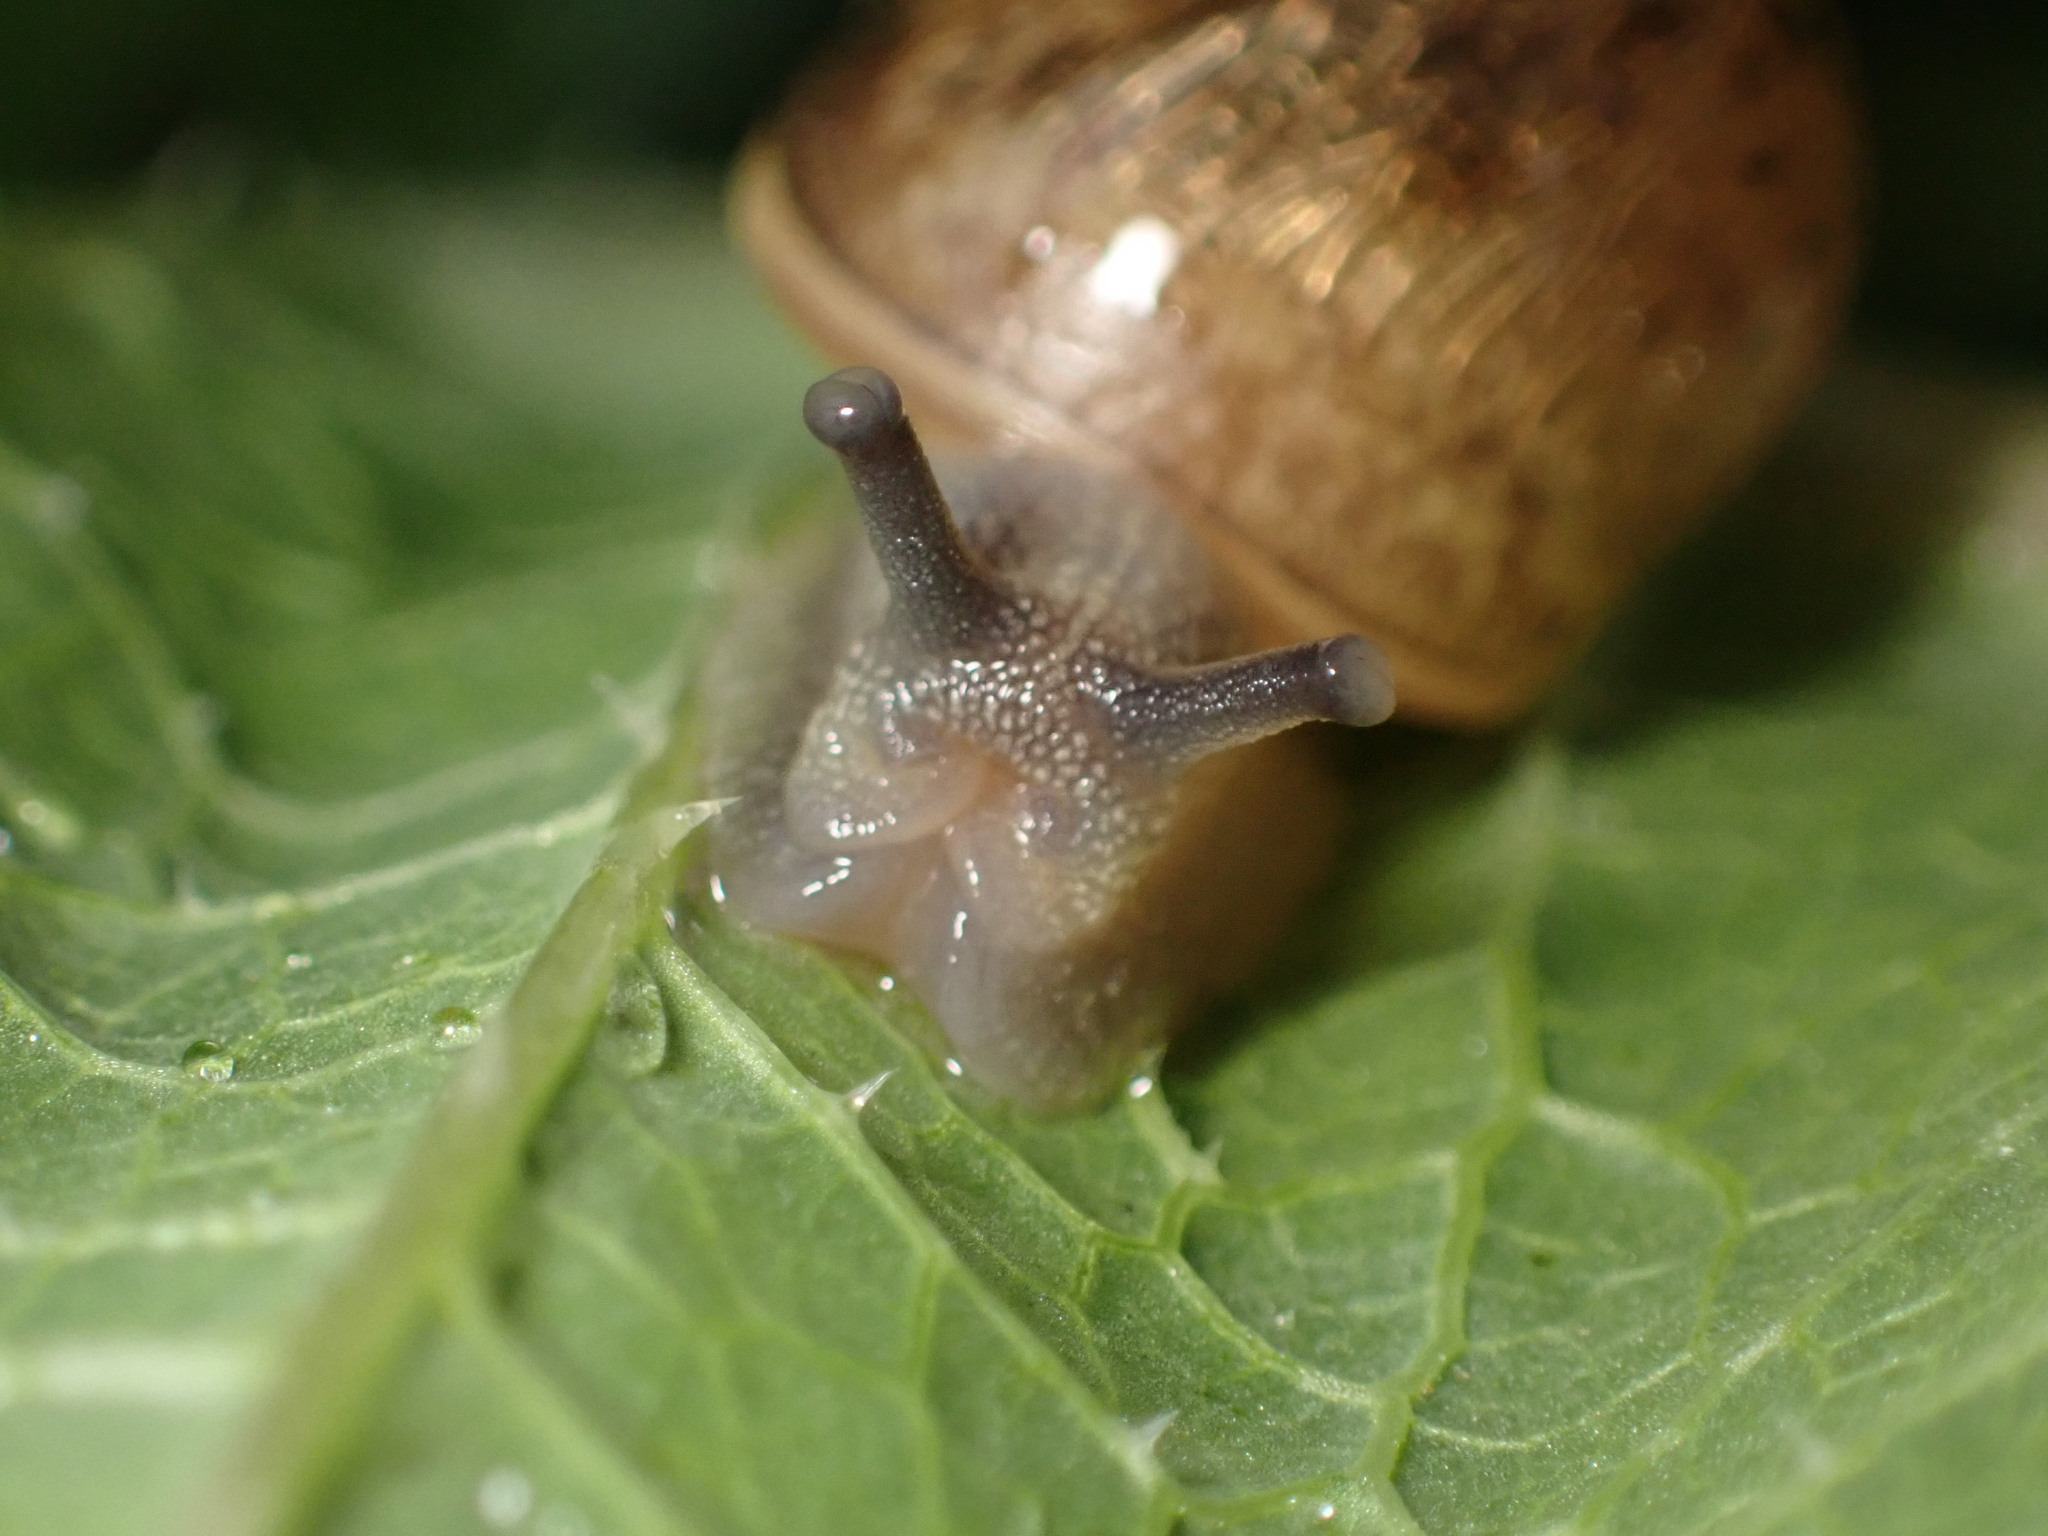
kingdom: Animalia
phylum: Mollusca
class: Gastropoda
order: Stylommatophora
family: Helicidae
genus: Cornu
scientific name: Cornu aspersum
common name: Brown garden snail
